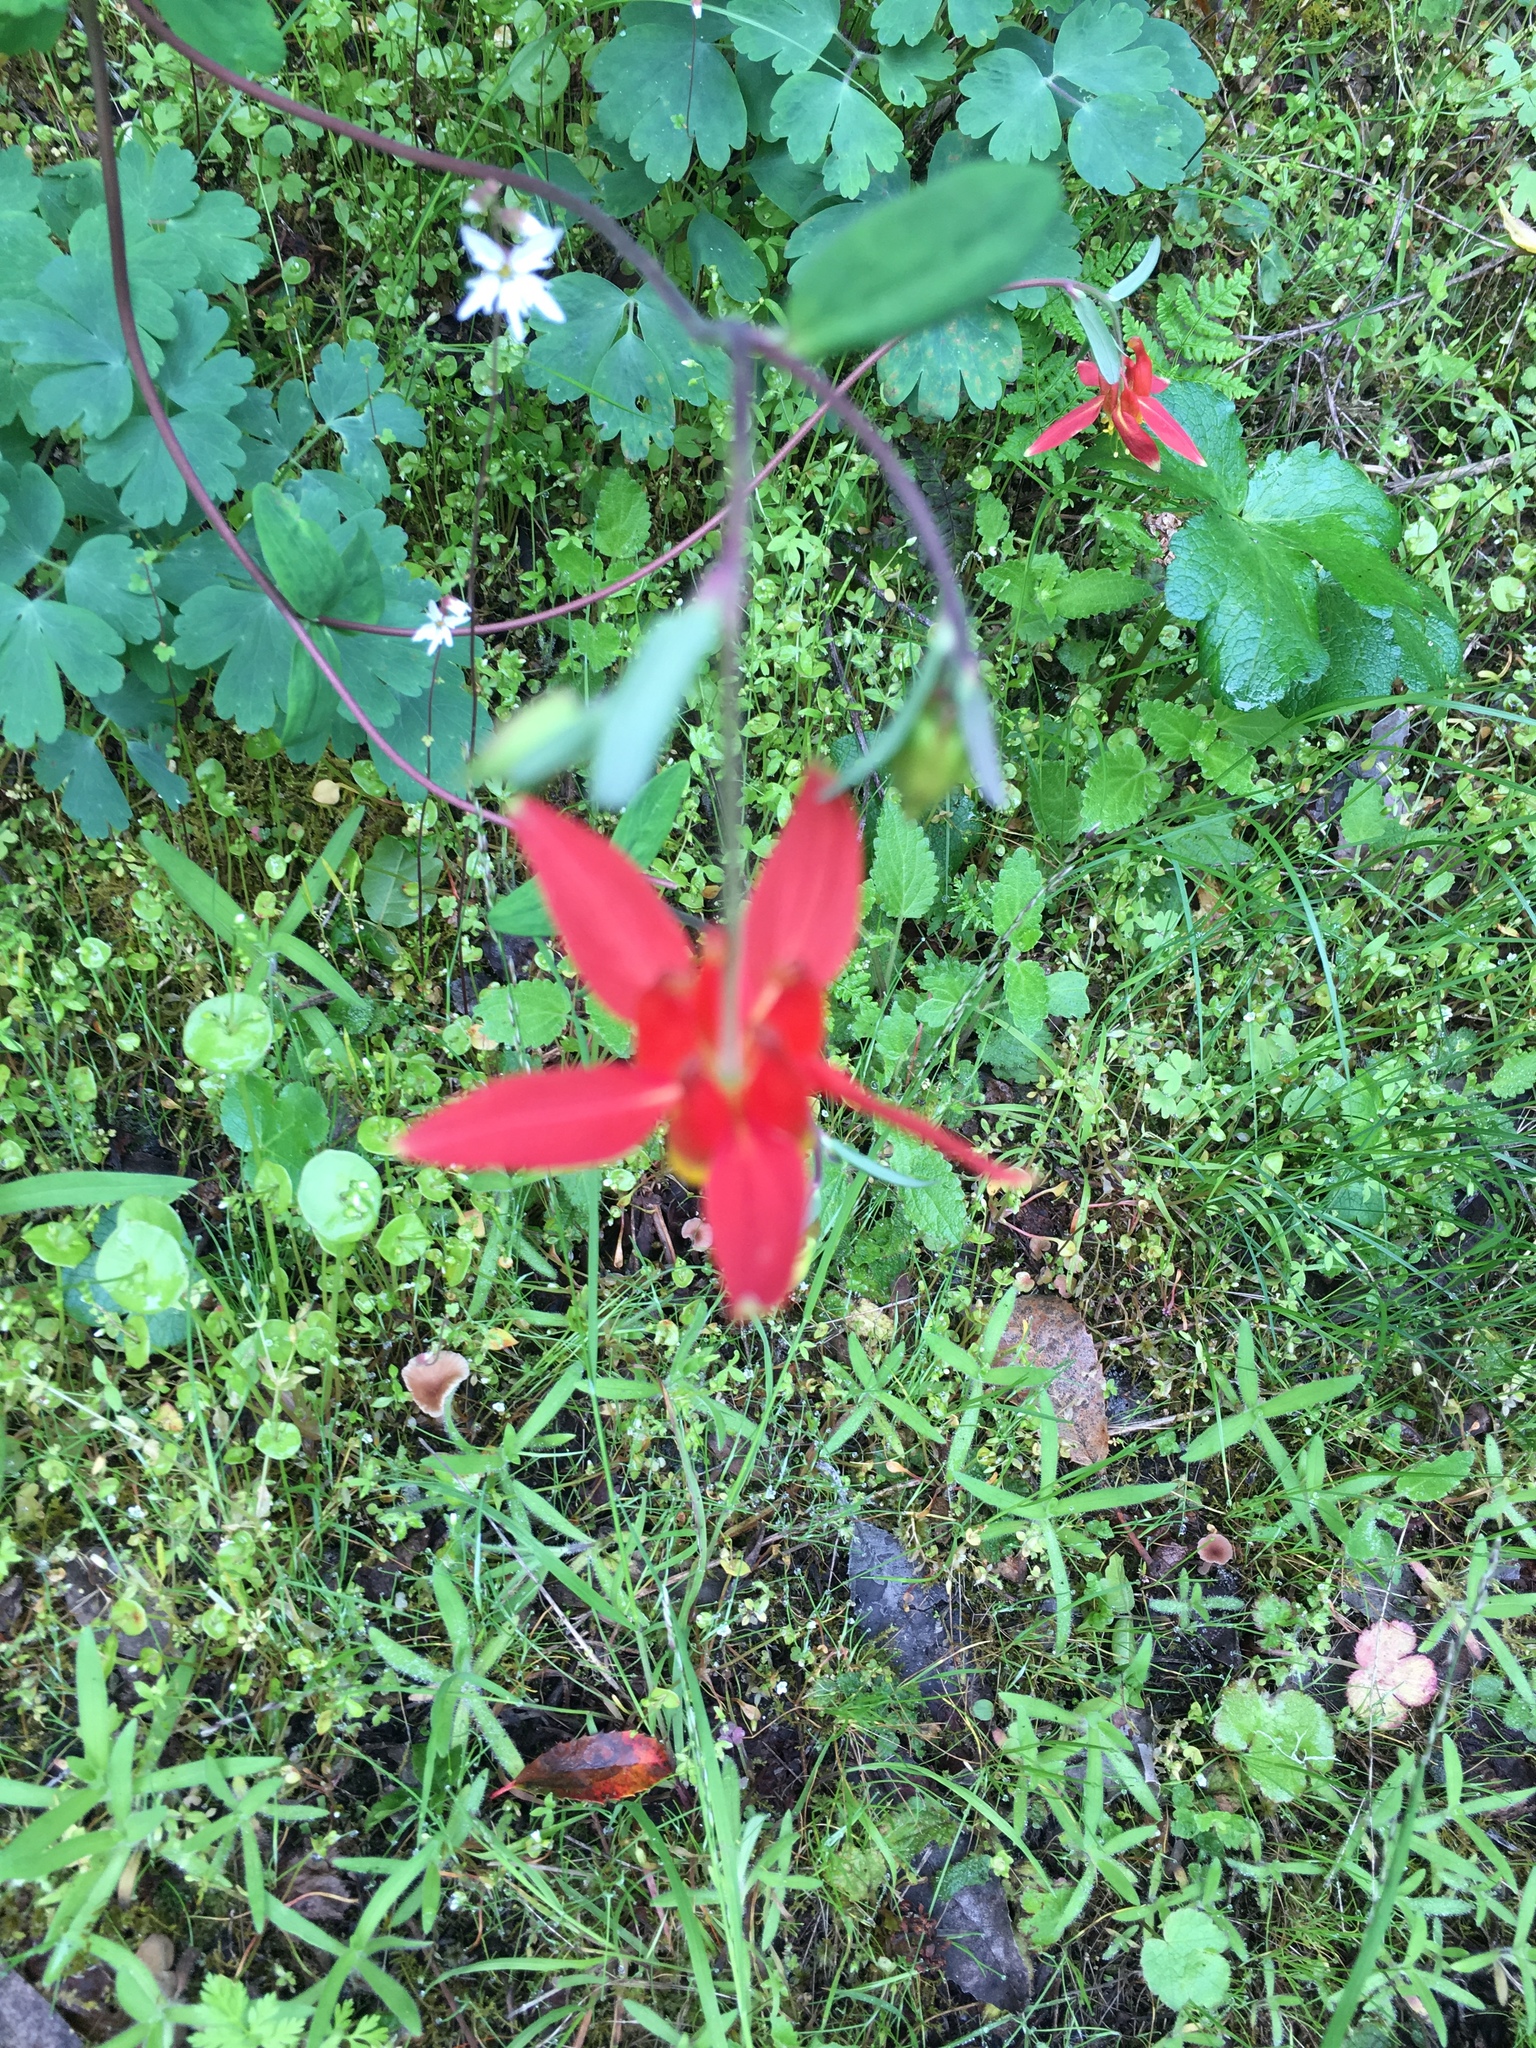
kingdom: Plantae
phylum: Tracheophyta
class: Magnoliopsida
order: Ranunculales
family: Ranunculaceae
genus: Aquilegia
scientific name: Aquilegia formosa
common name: Sitka columbine
